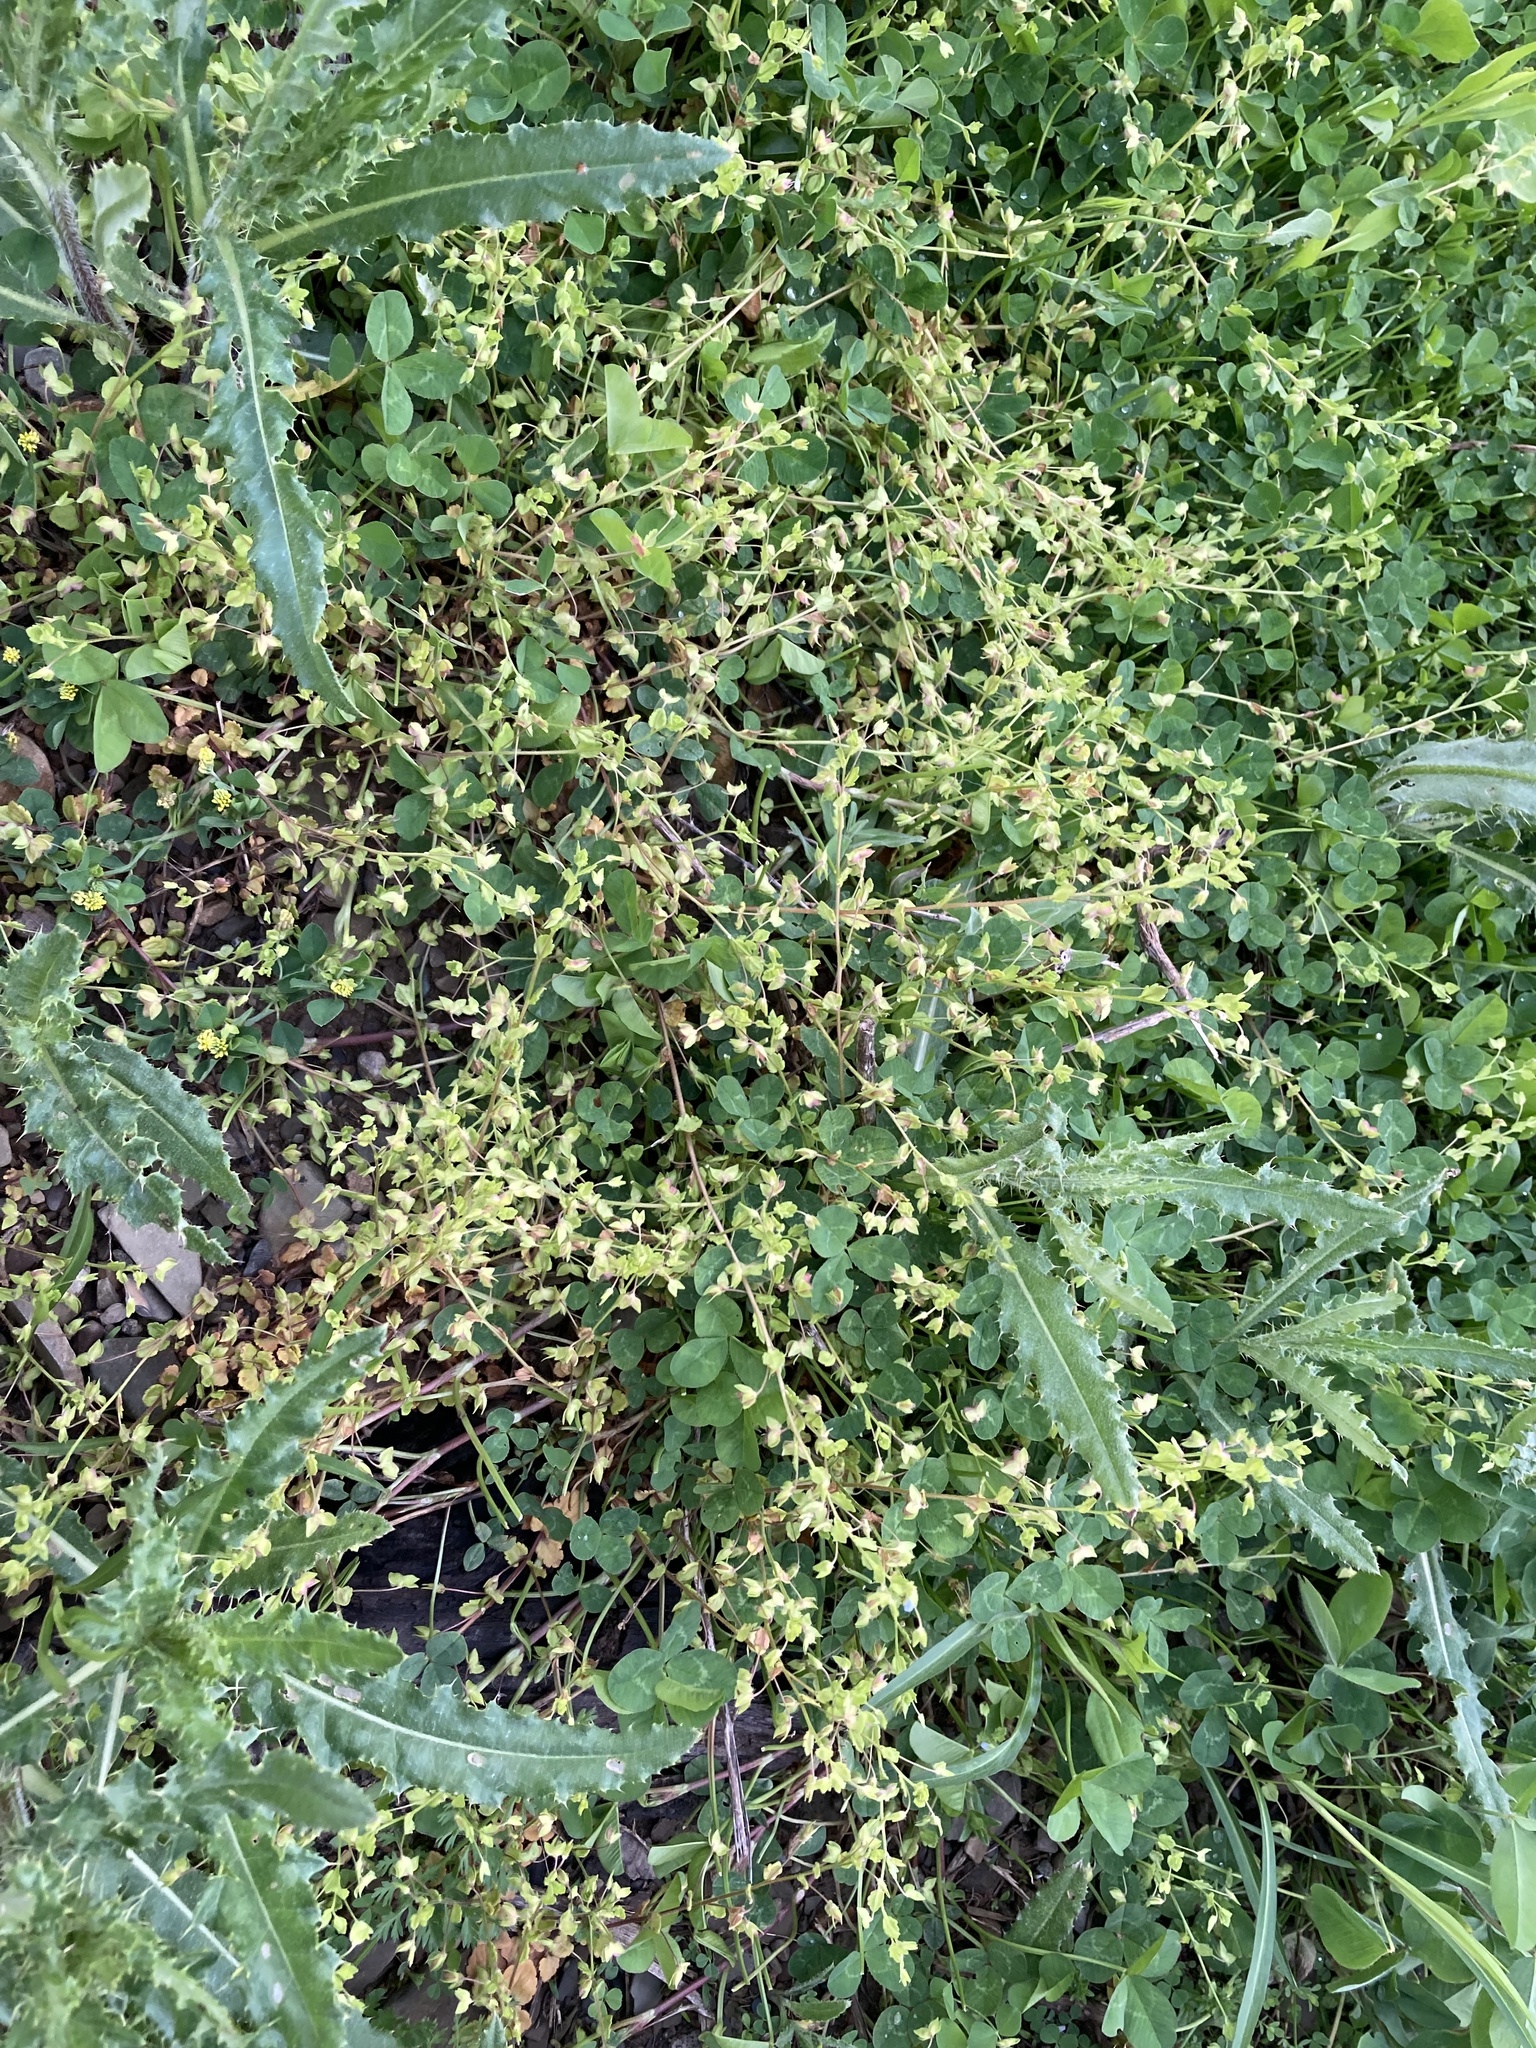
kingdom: Plantae
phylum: Tracheophyta
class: Magnoliopsida
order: Lamiales
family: Plantaginaceae
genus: Veronica
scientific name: Veronica persica
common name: Common field-speedwell
